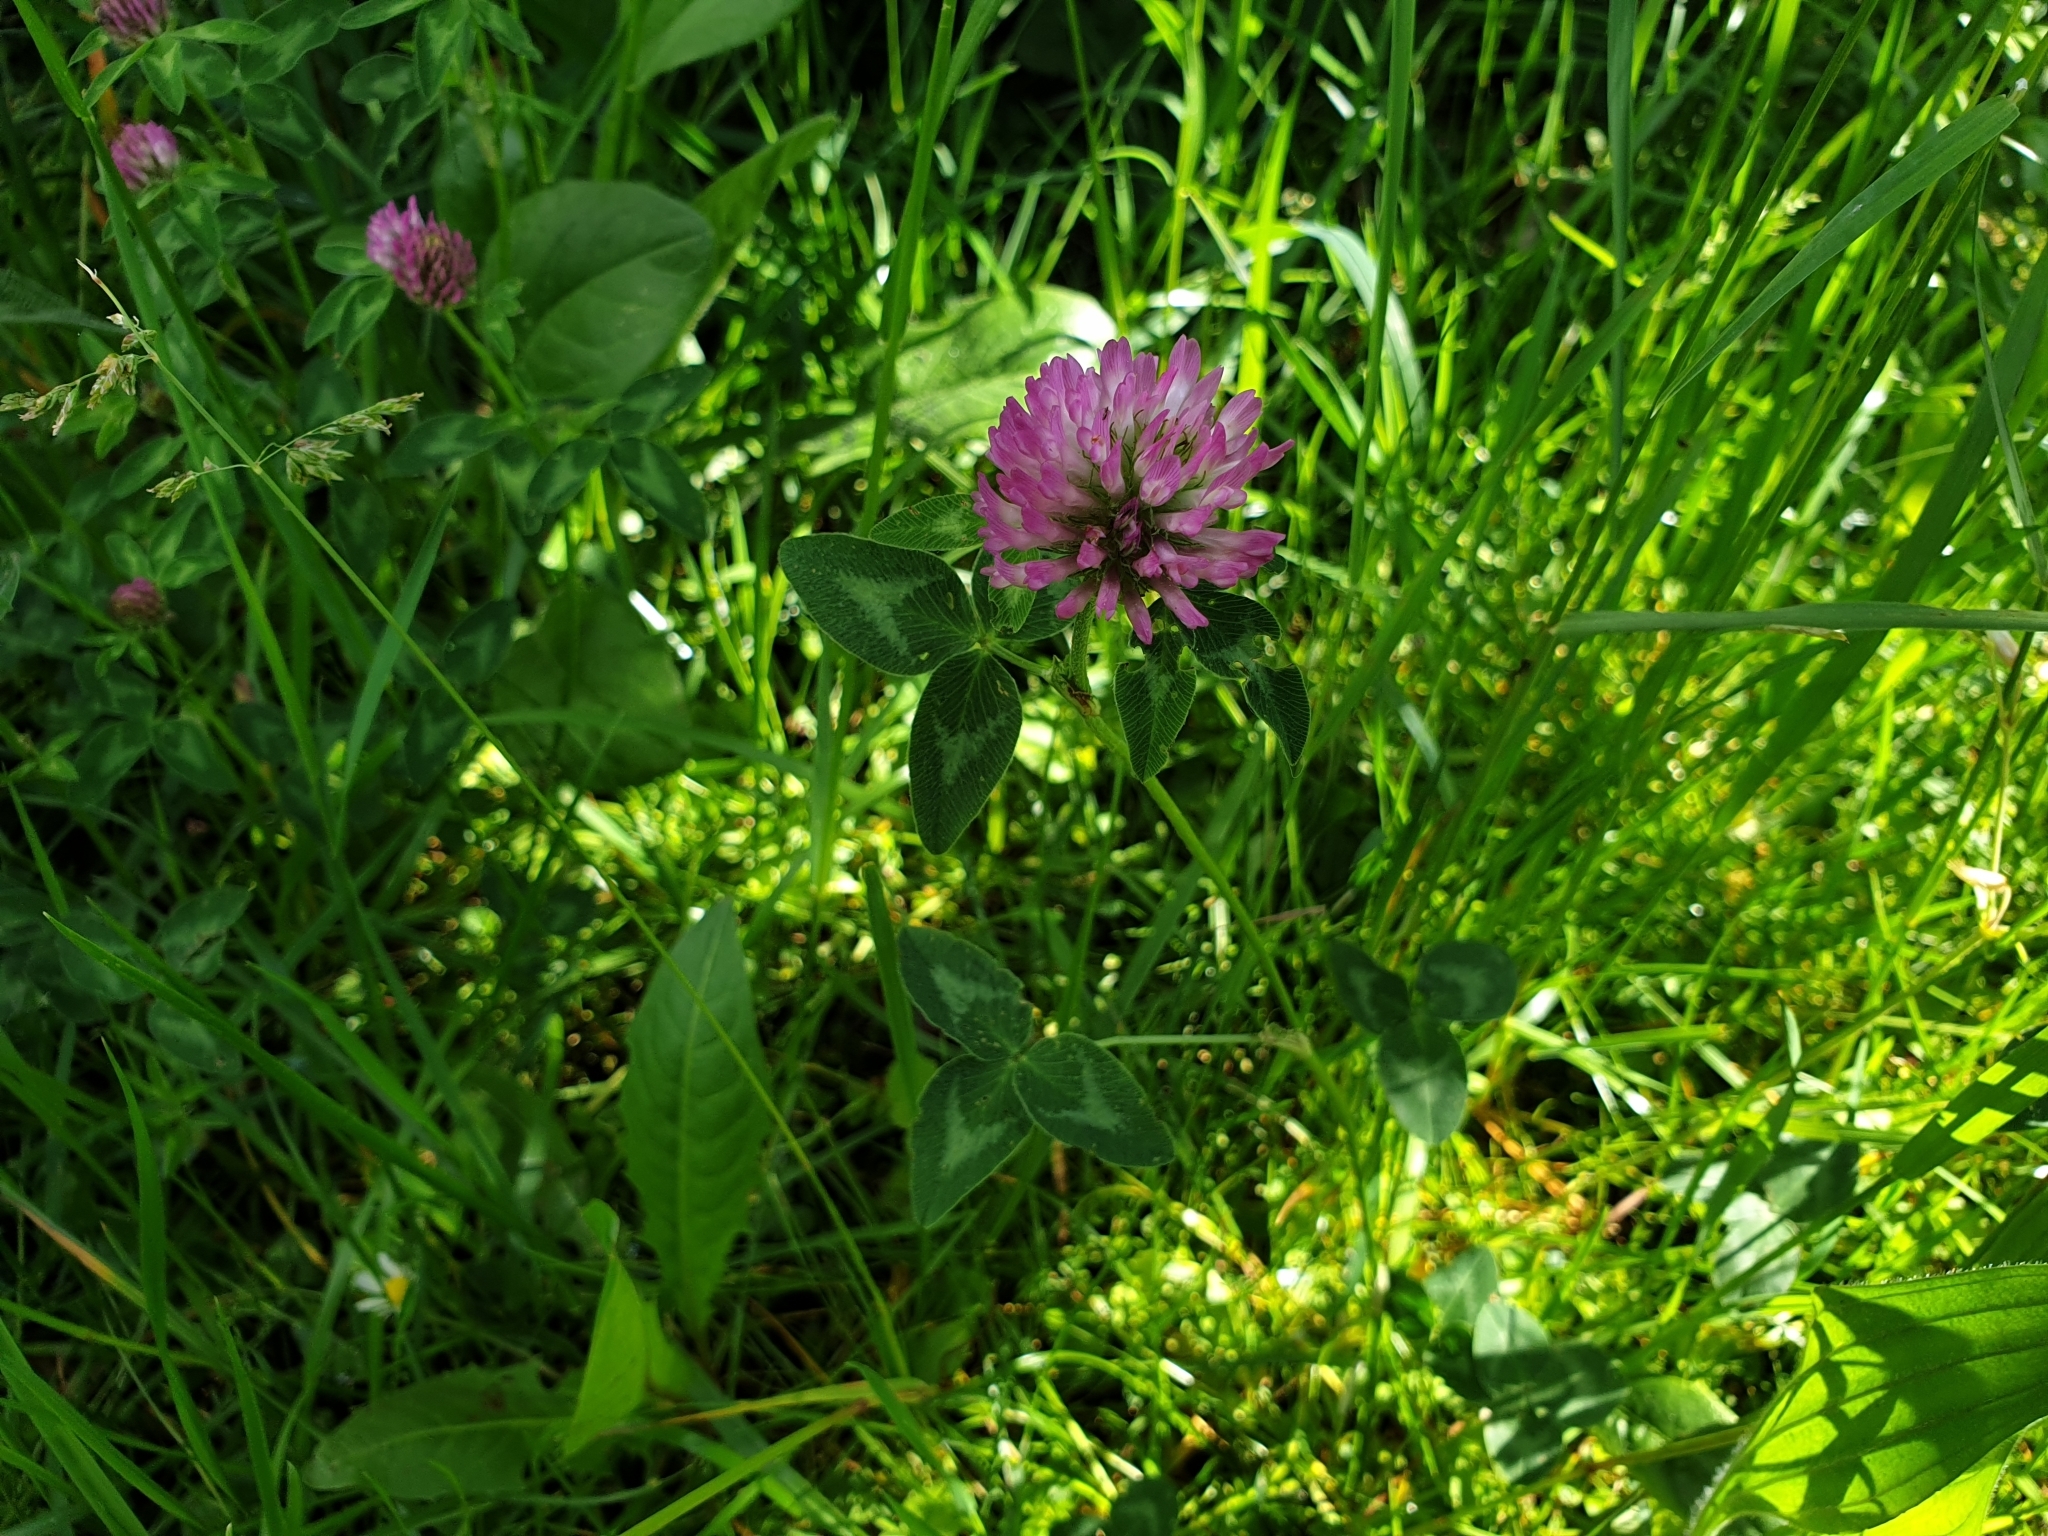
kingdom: Plantae
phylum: Tracheophyta
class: Magnoliopsida
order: Fabales
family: Fabaceae
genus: Trifolium
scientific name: Trifolium pratense
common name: Red clover
